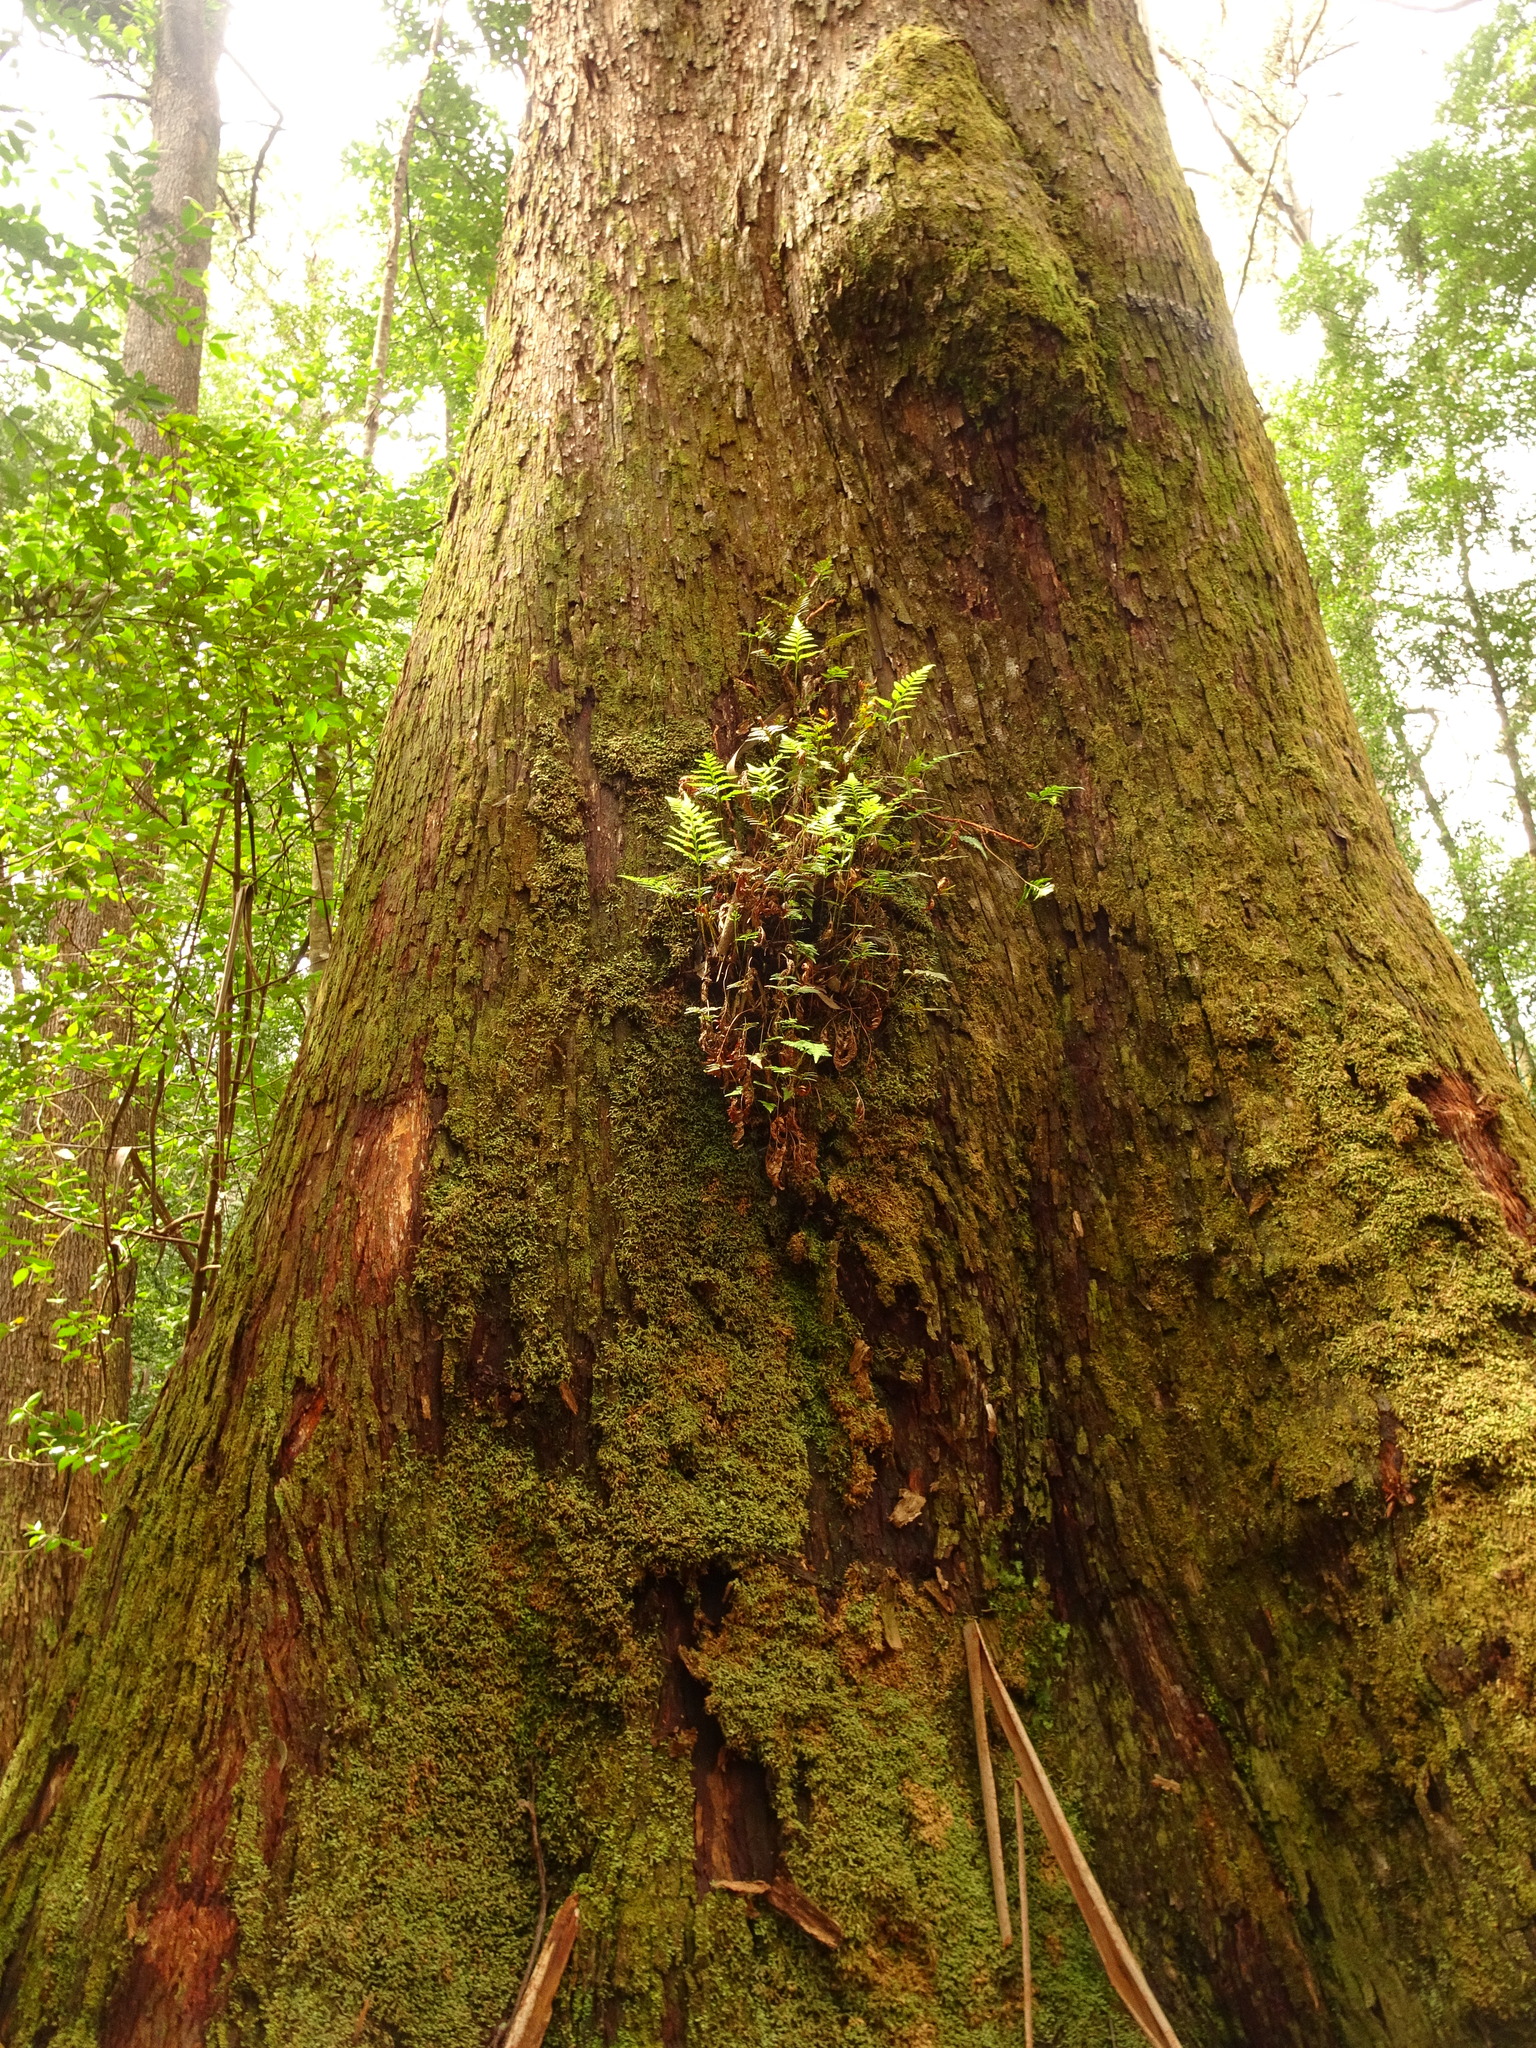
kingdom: Plantae
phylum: Tracheophyta
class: Magnoliopsida
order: Myrtales
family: Myrtaceae
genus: Eucalyptus
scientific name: Eucalyptus regnans
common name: Stringy gum
